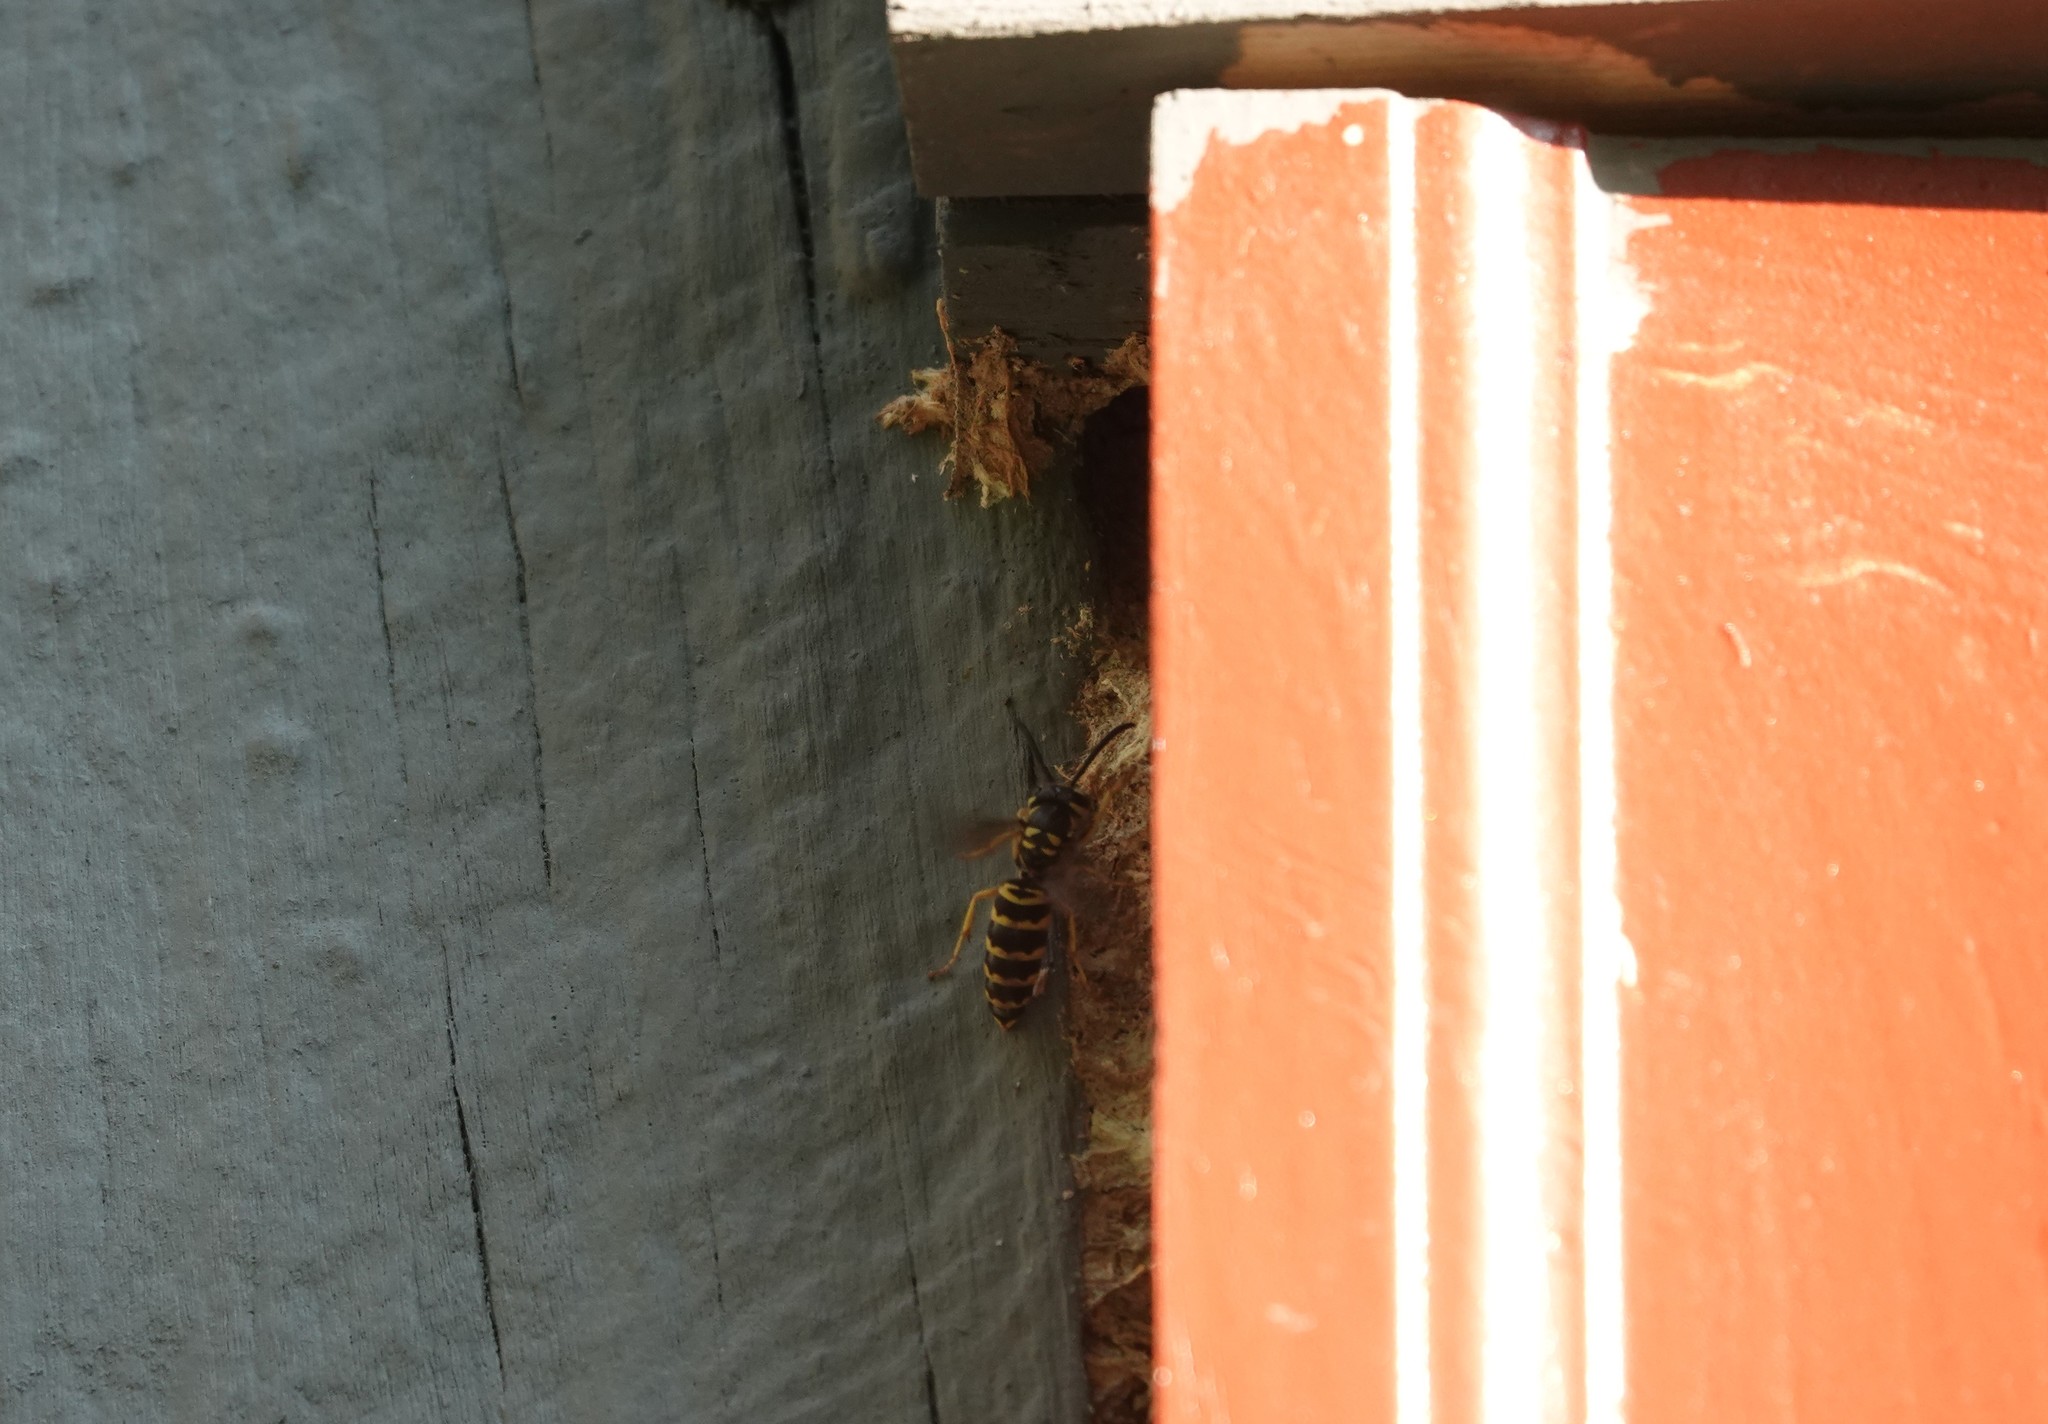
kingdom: Animalia
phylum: Arthropoda
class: Insecta
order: Hymenoptera
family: Vespidae
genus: Vespula
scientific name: Vespula maculifrons
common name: Eastern yellowjacket
